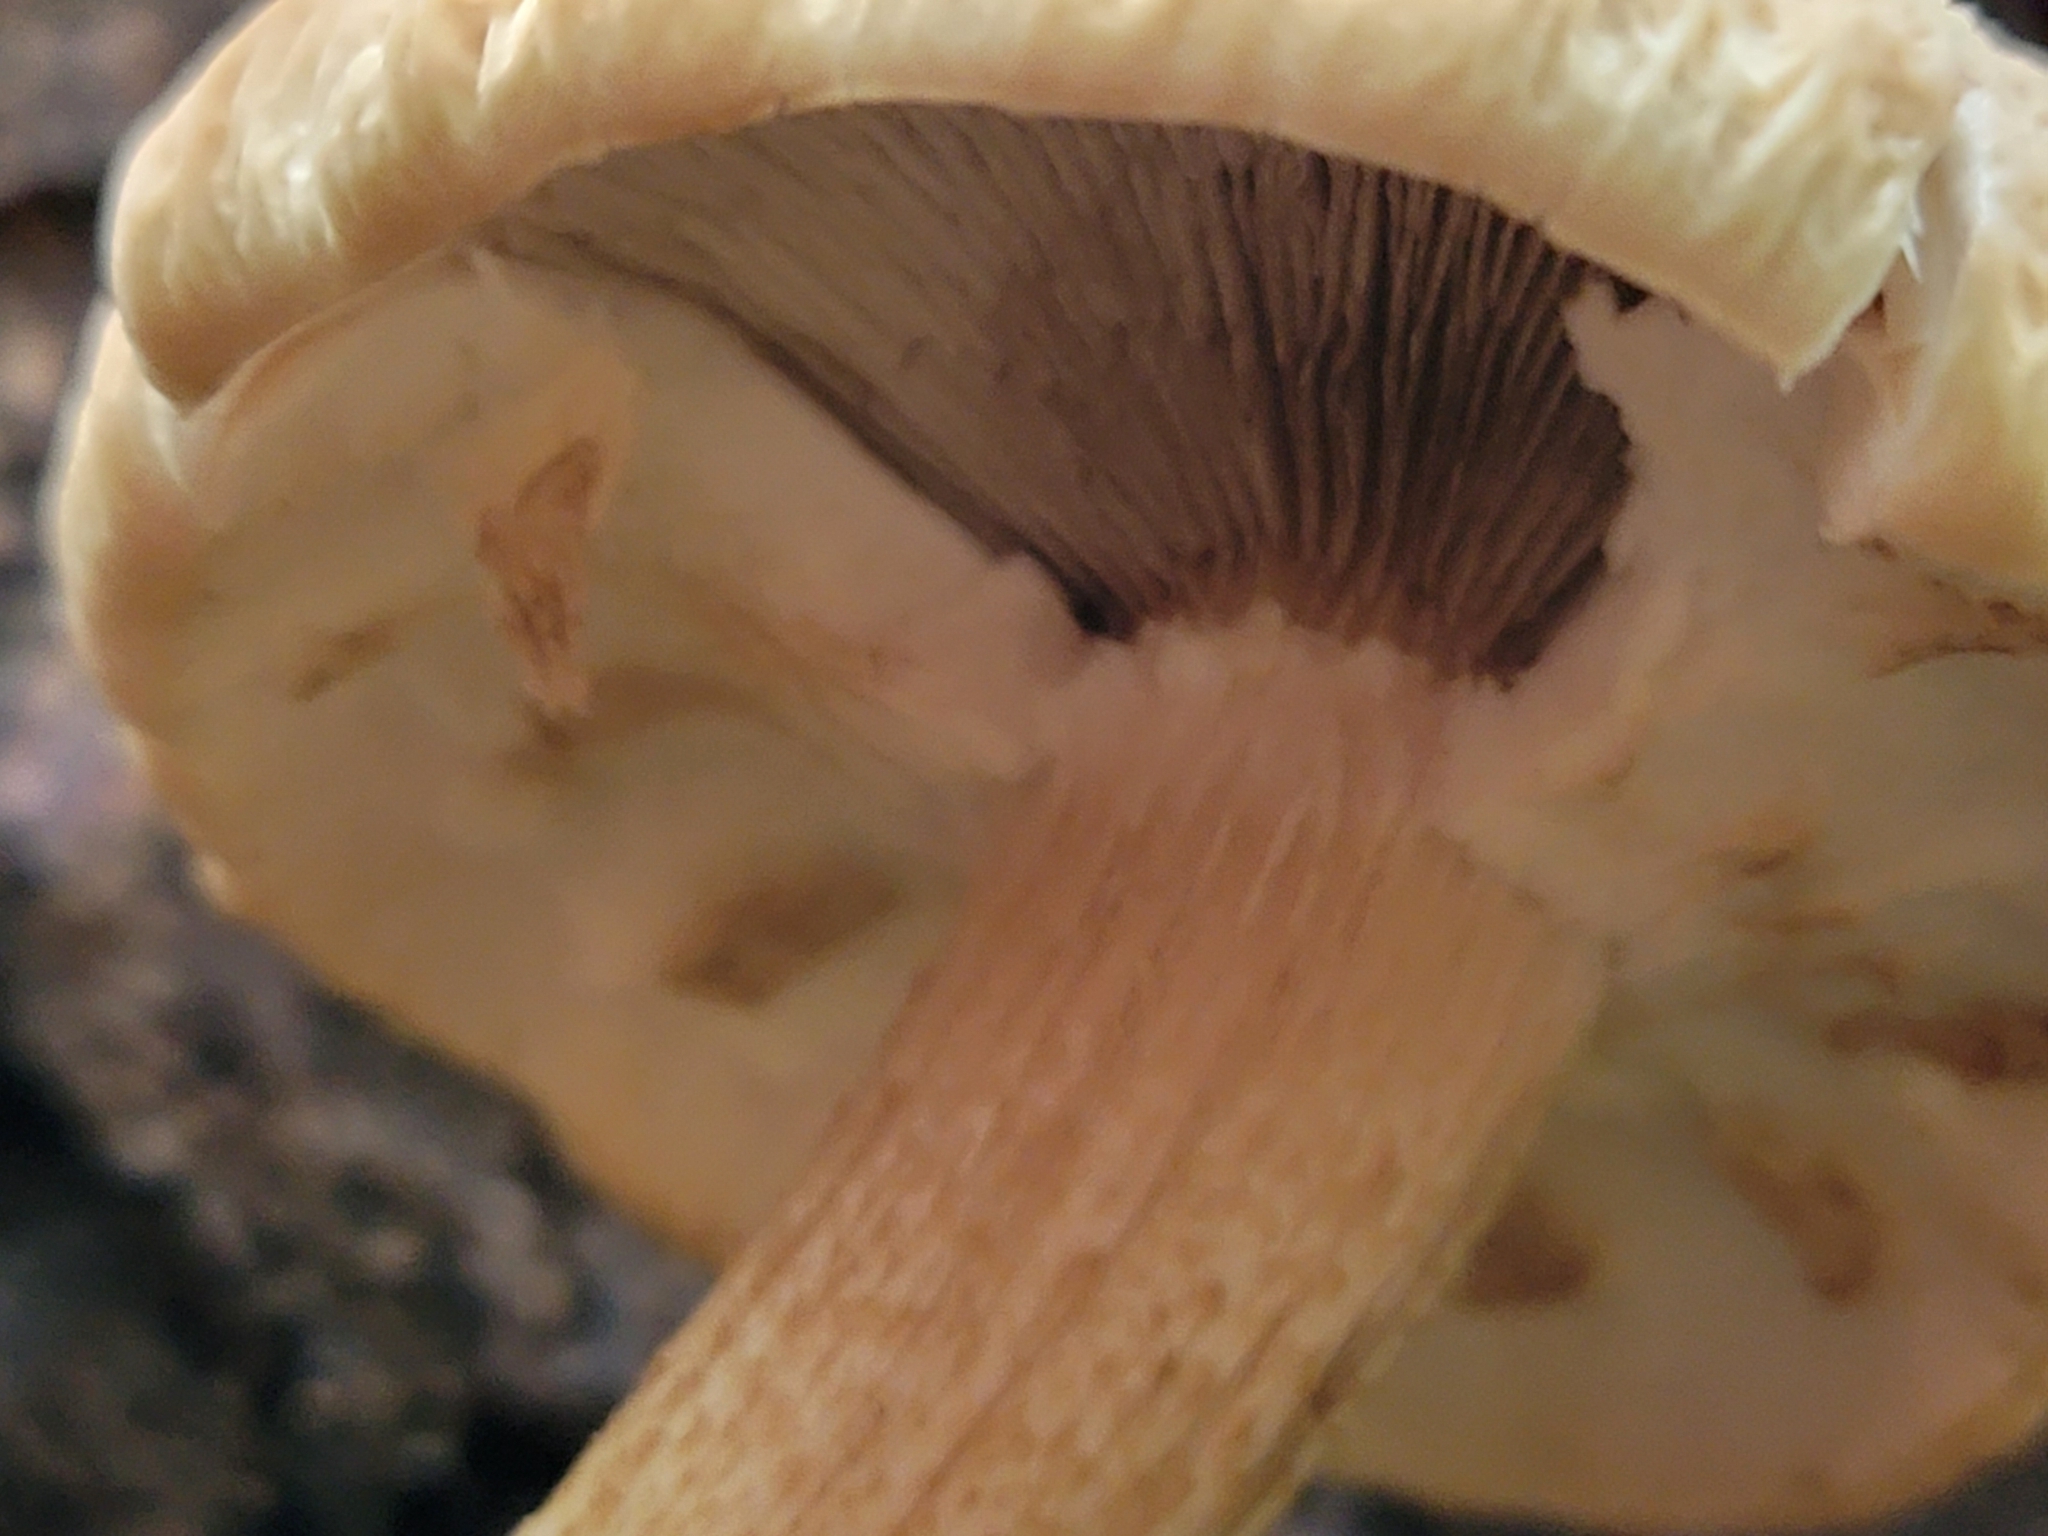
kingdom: Fungi
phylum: Basidiomycota
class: Agaricomycetes
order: Agaricales
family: Tubariaceae
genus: Cyclocybe
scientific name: Cyclocybe parasitica
